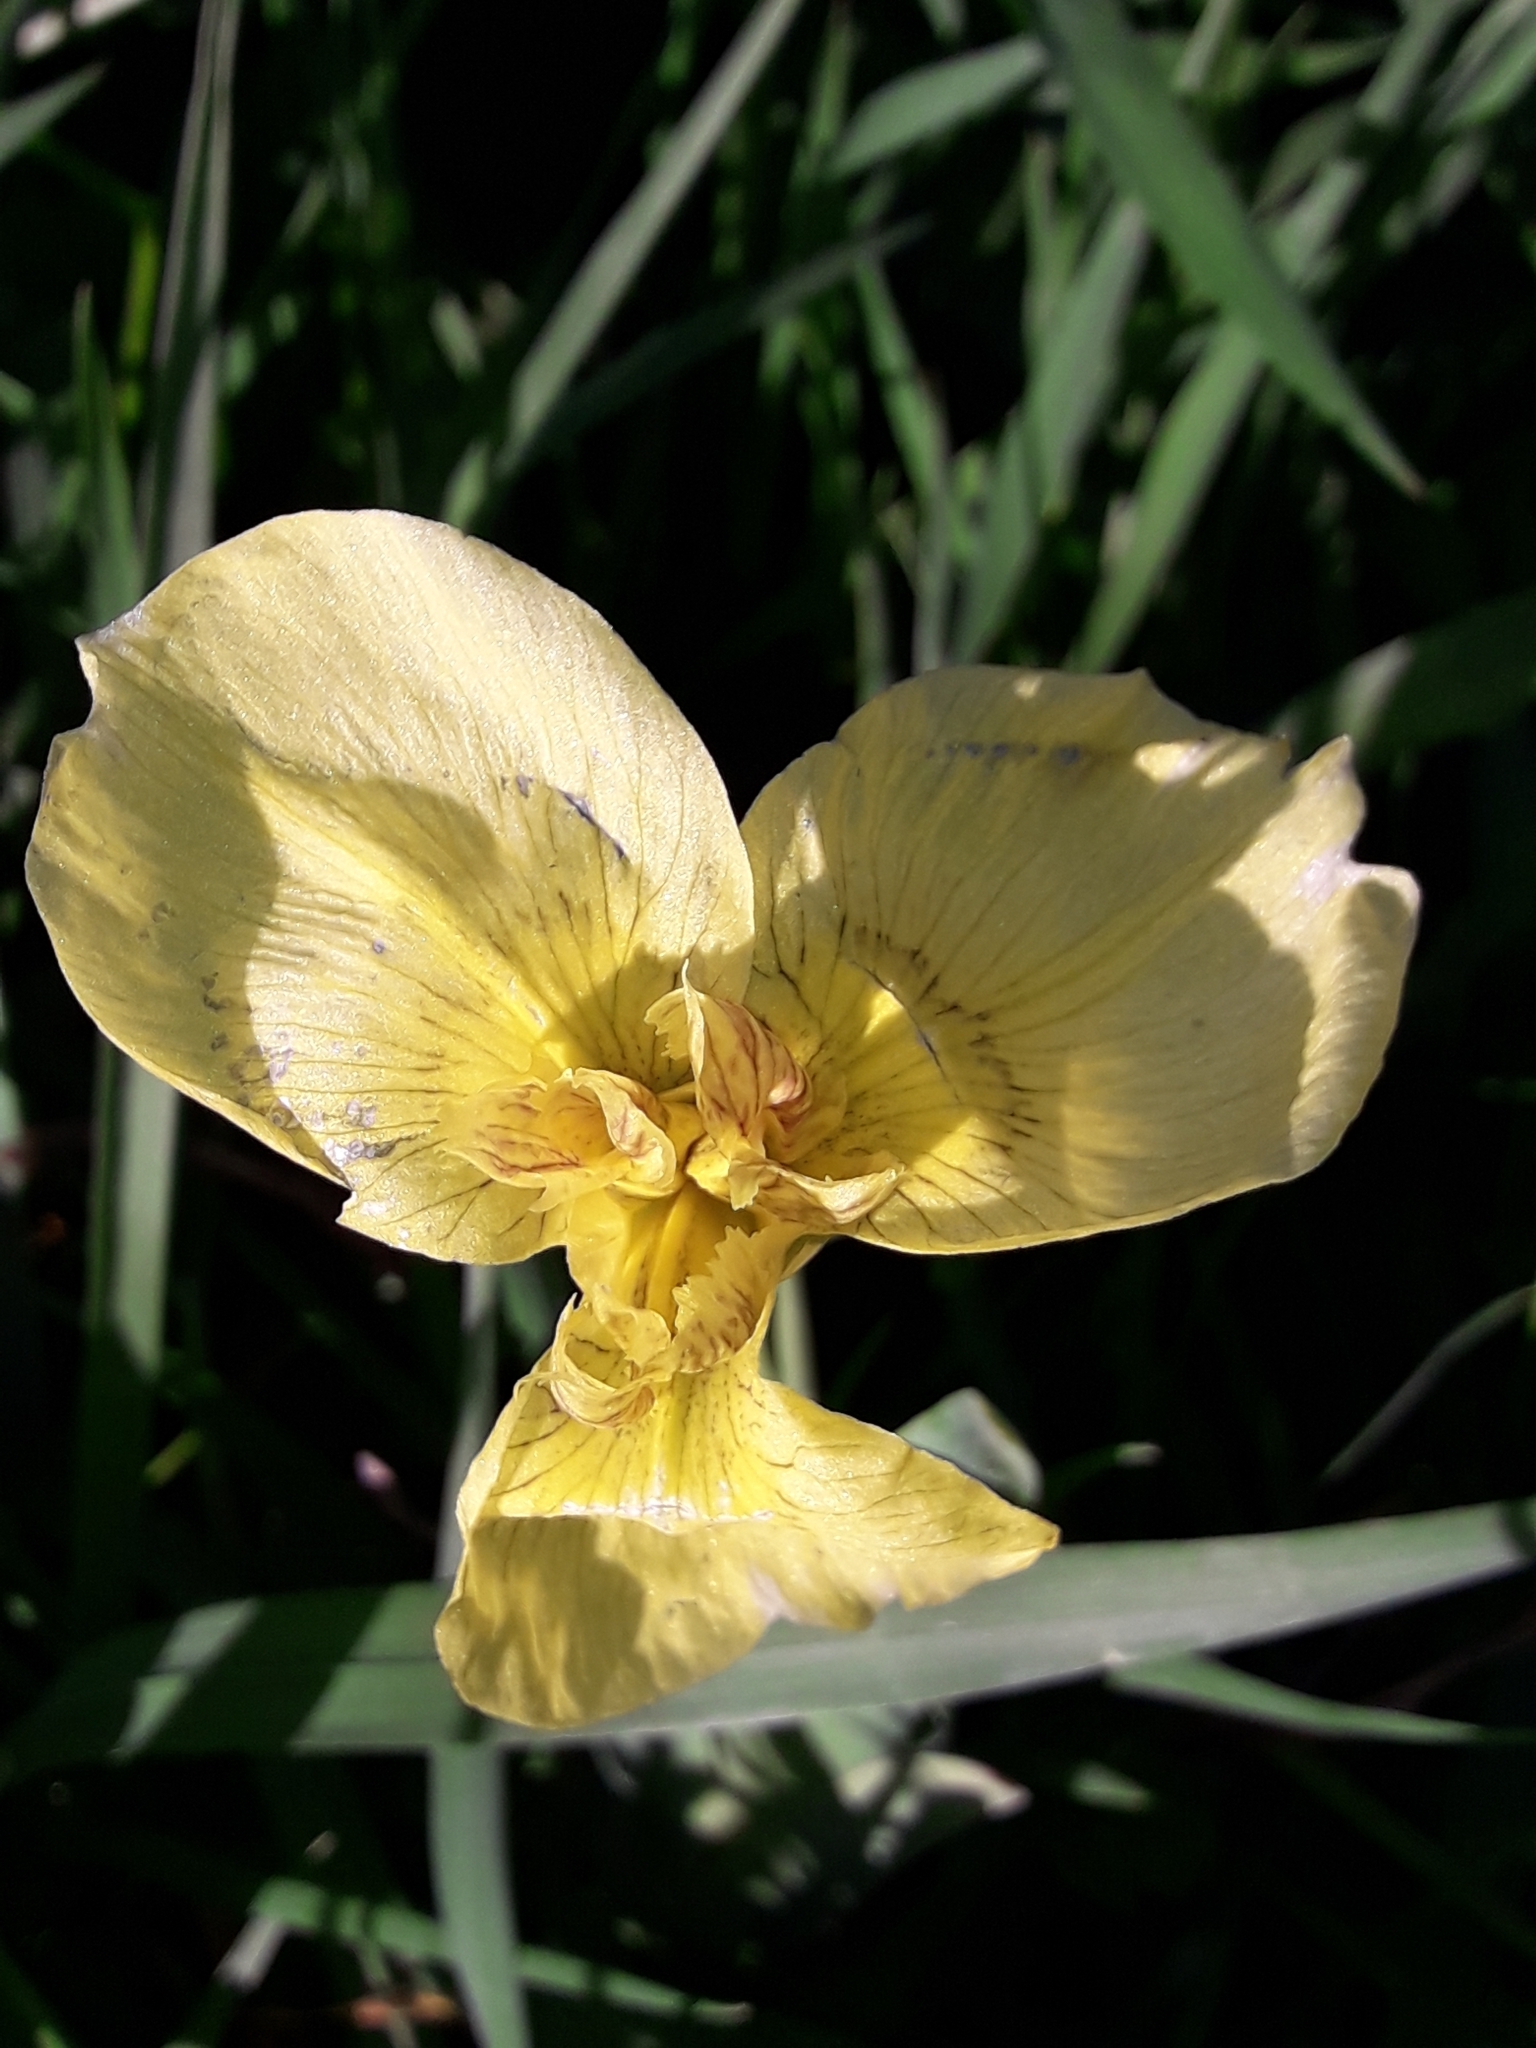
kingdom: Plantae
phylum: Tracheophyta
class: Liliopsida
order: Asparagales
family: Iridaceae
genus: Iris
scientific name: Iris pseudacorus
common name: Yellow flag
